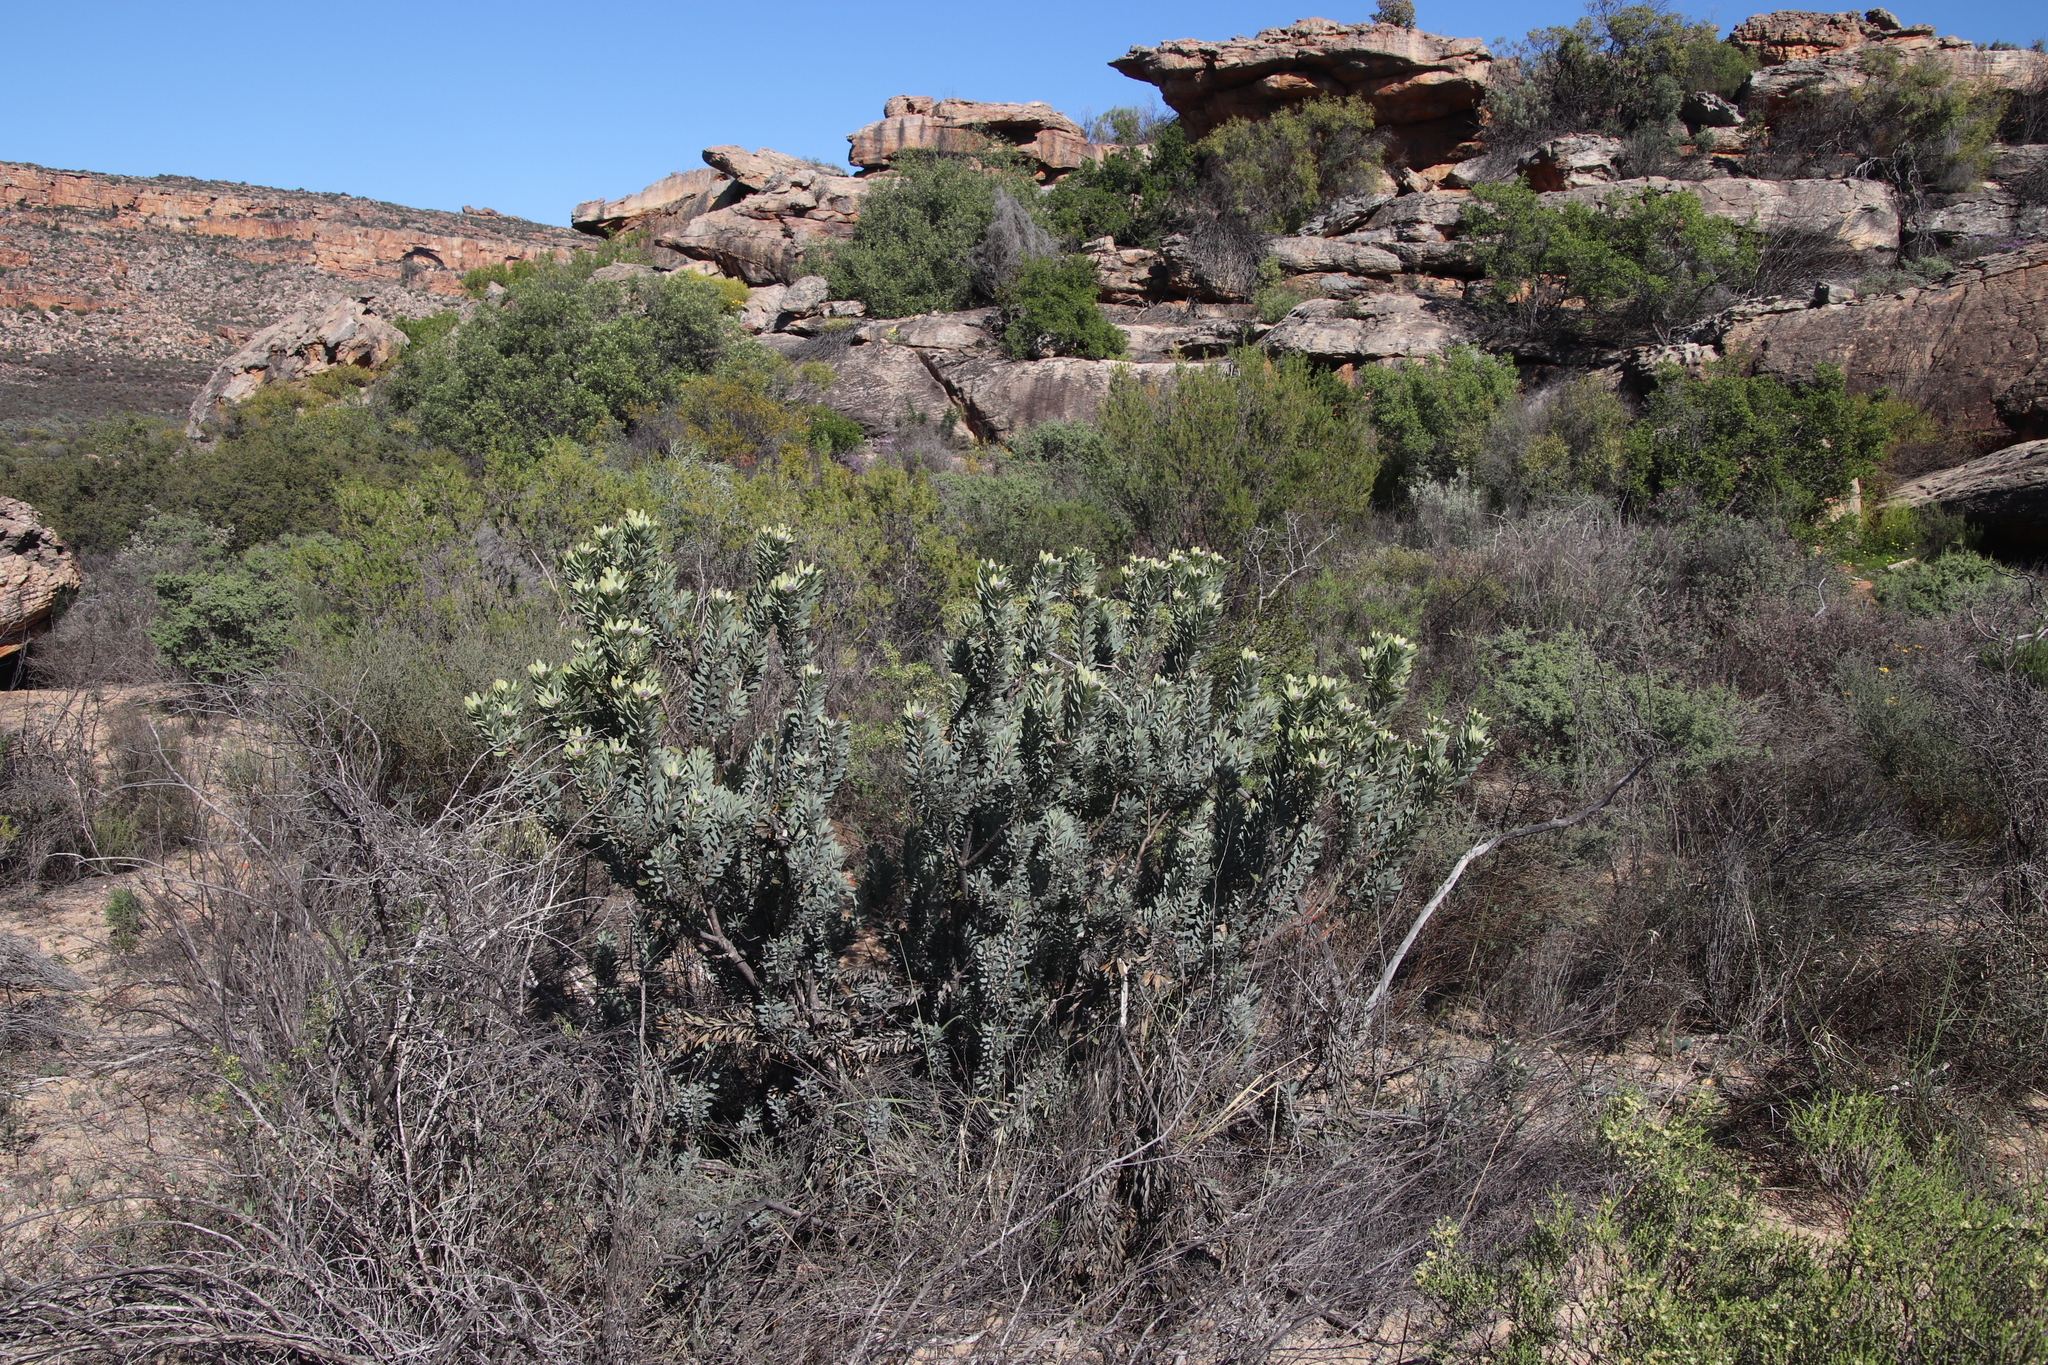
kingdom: Plantae
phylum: Tracheophyta
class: Magnoliopsida
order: Proteales
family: Proteaceae
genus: Leucadendron
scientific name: Leucadendron pubescens
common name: Grey conebush
